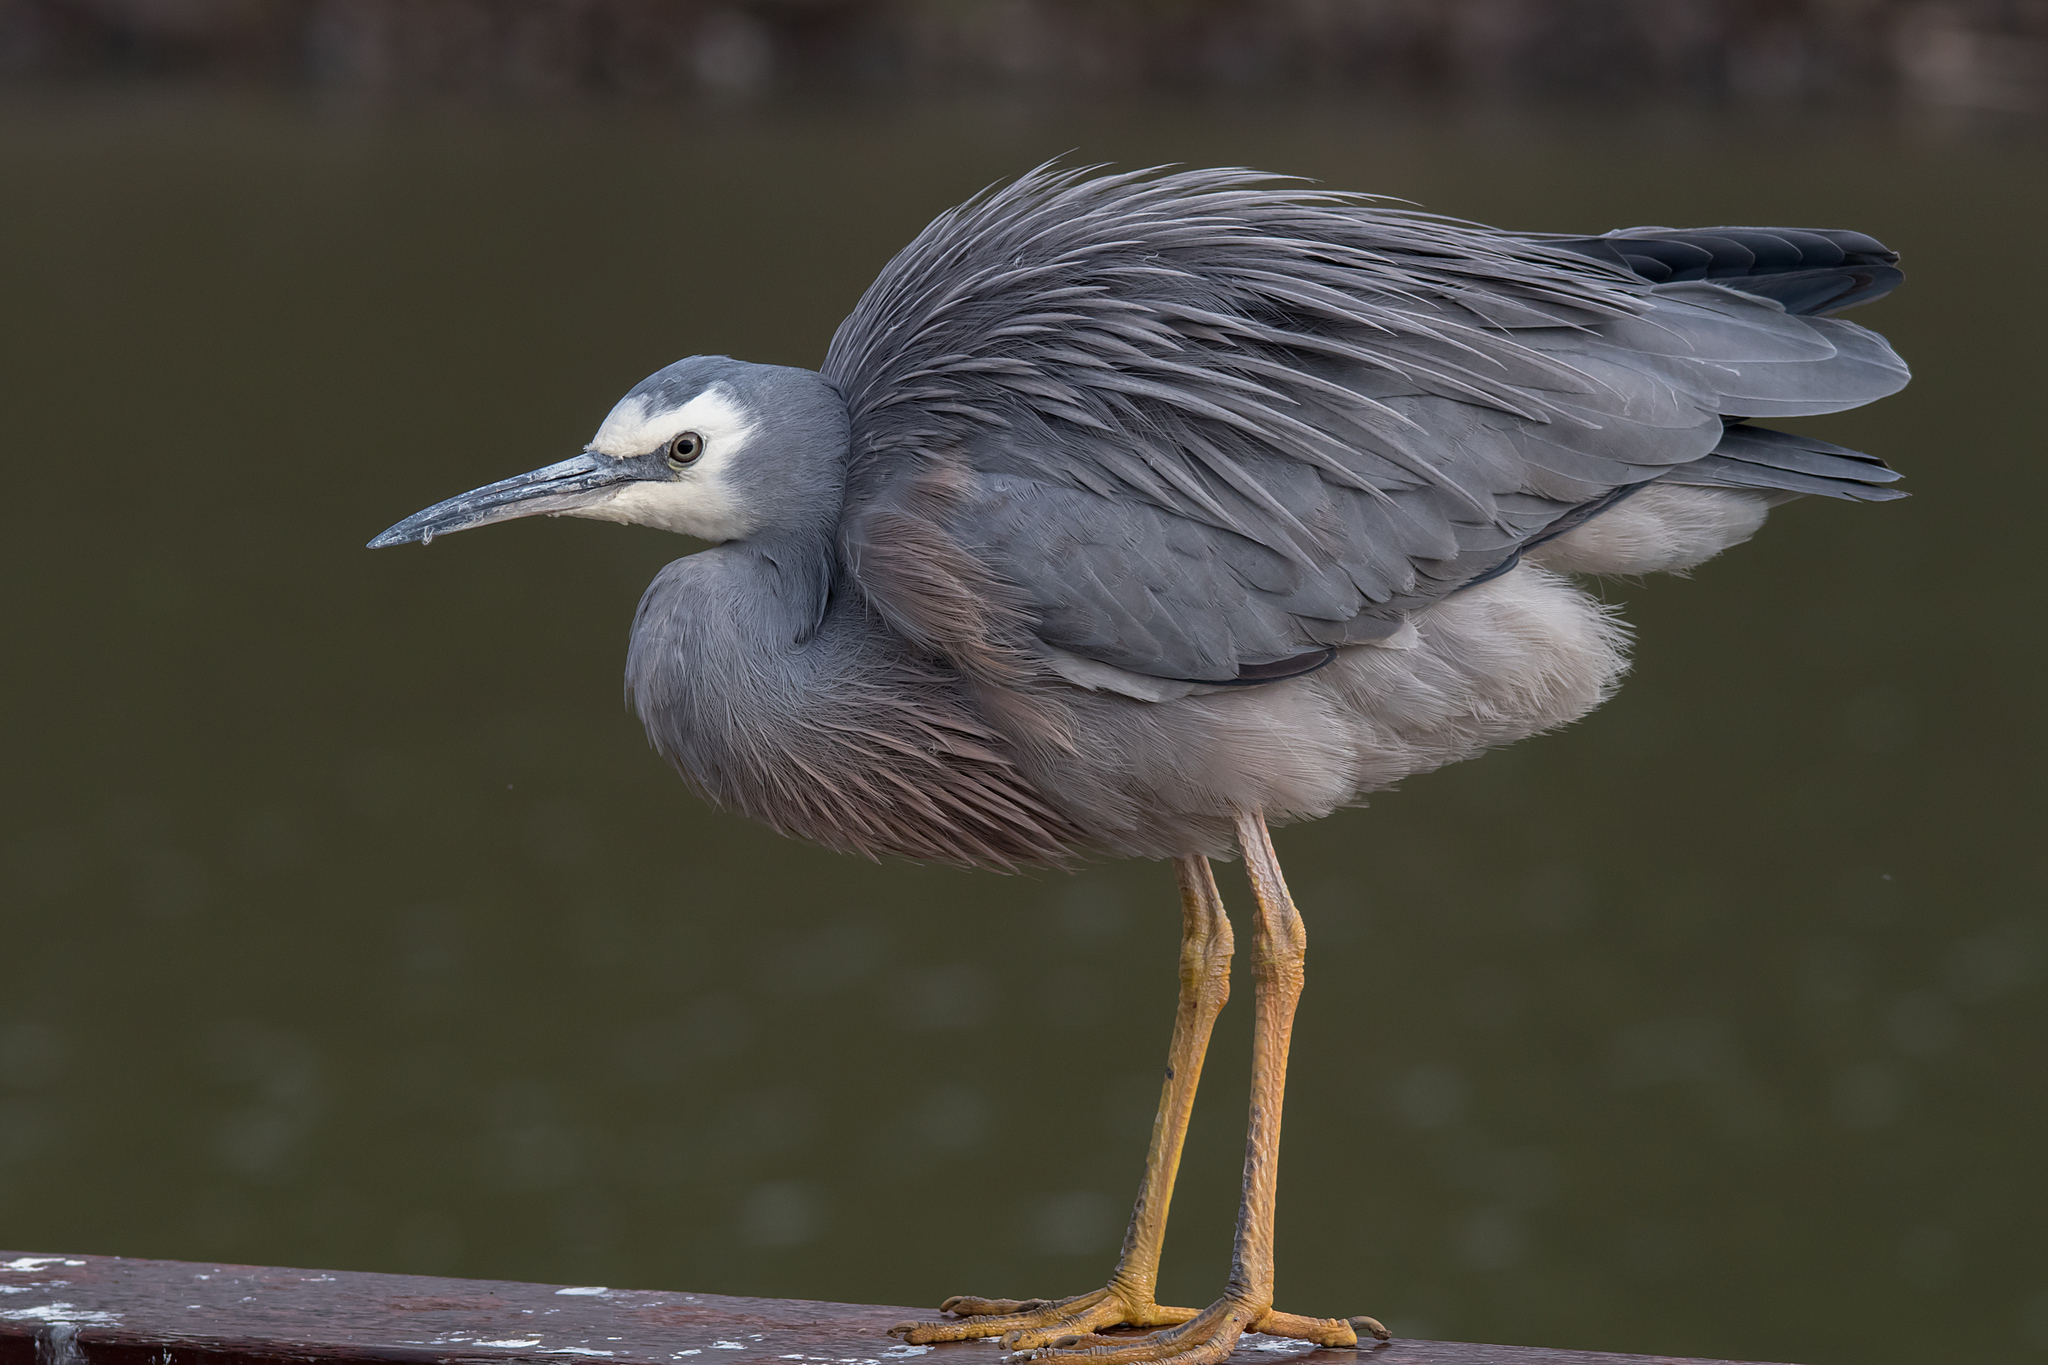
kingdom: Animalia
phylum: Chordata
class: Aves
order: Pelecaniformes
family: Ardeidae
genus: Egretta
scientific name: Egretta novaehollandiae
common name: White-faced heron
